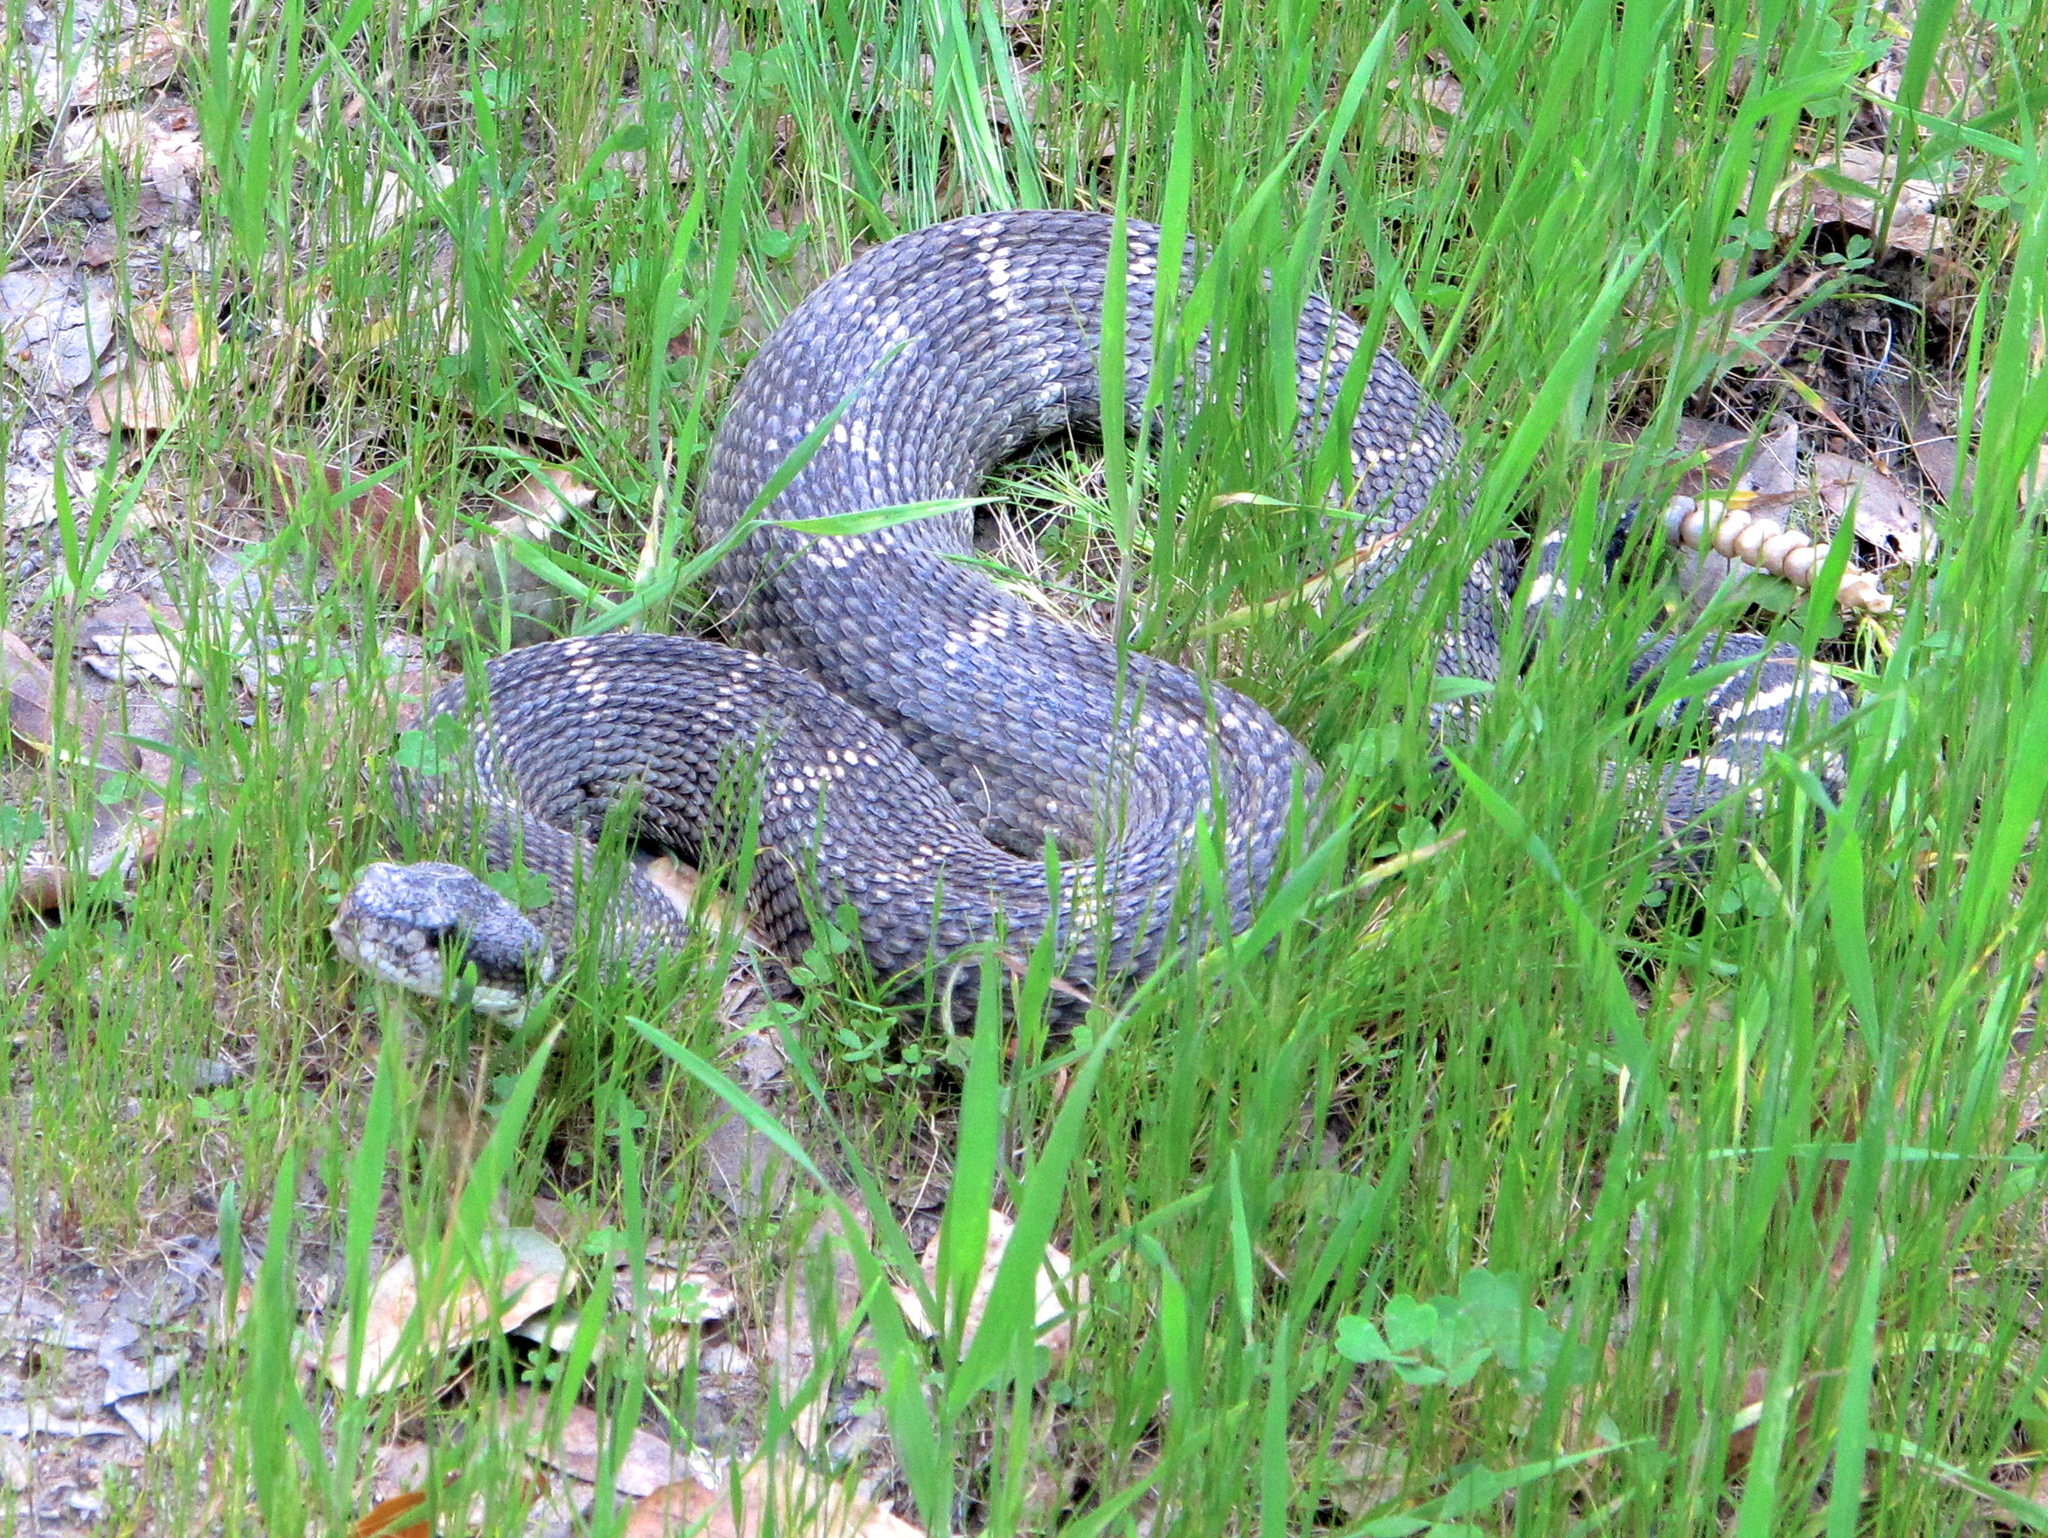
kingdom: Animalia
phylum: Chordata
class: Squamata
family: Viperidae
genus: Crotalus
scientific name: Crotalus oreganus
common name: Abyssus
